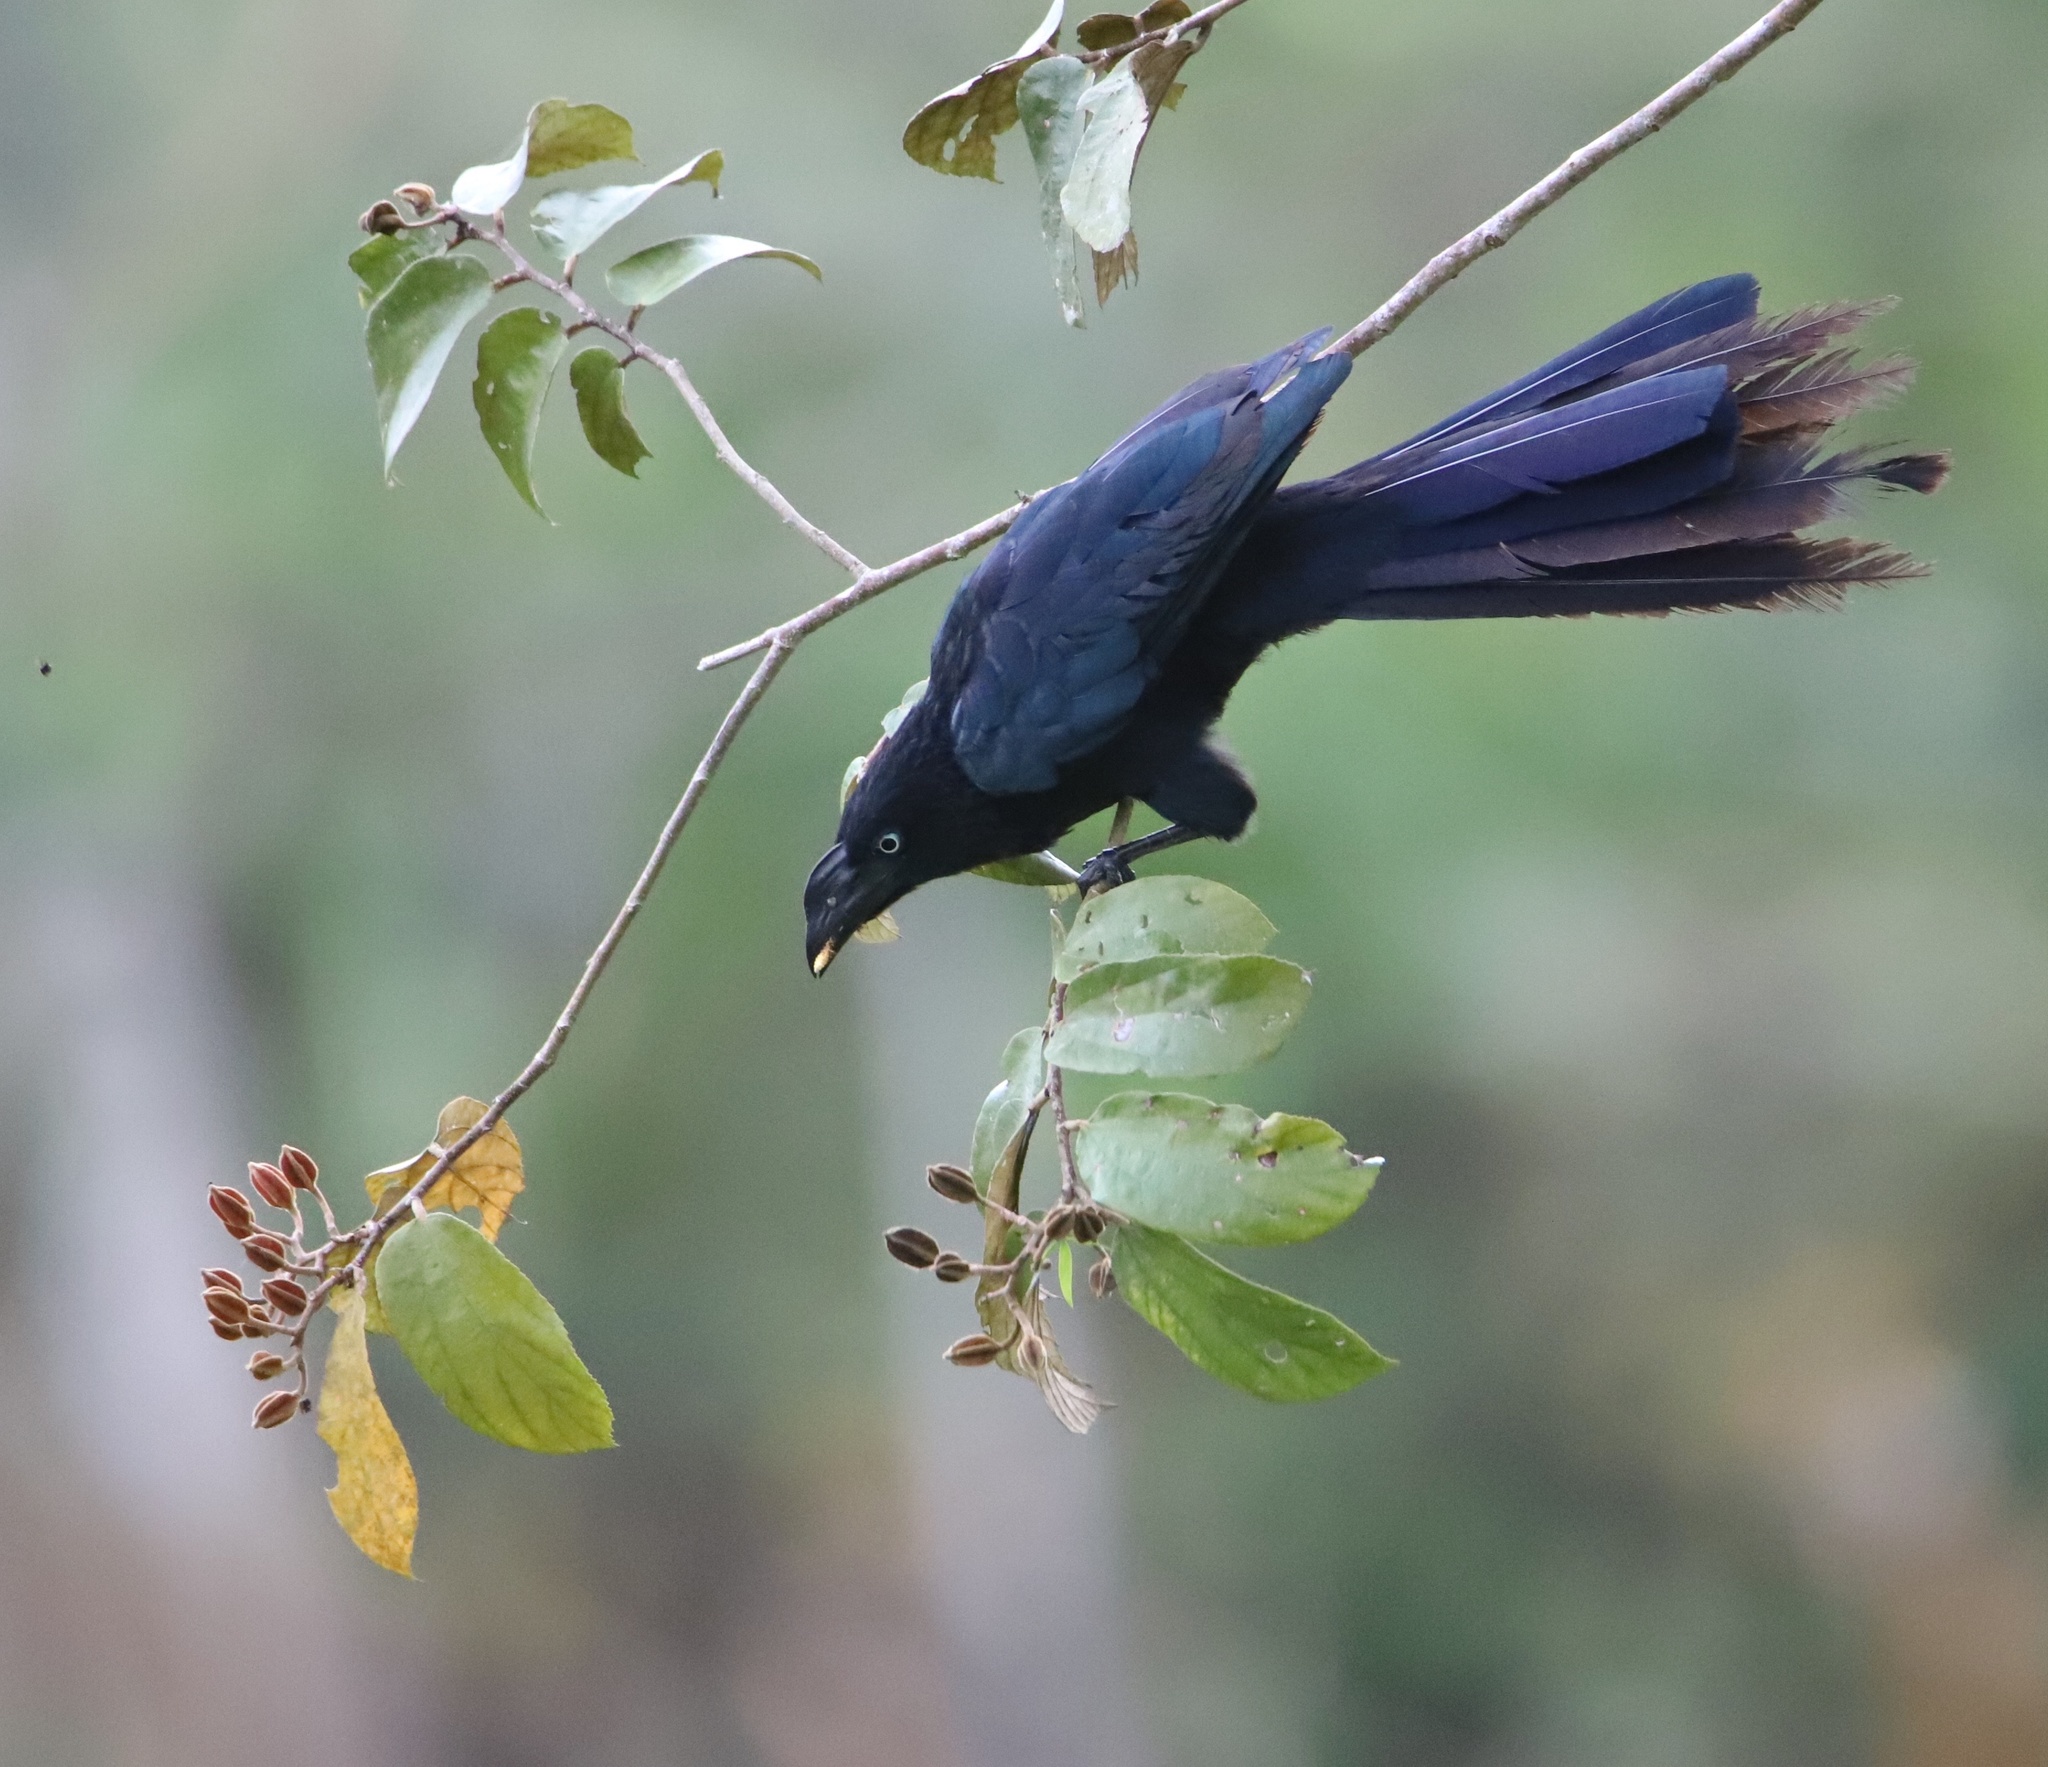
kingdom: Animalia
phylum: Chordata
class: Aves
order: Cuculiformes
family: Cuculidae
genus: Crotophaga
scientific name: Crotophaga major
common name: Greater ani
